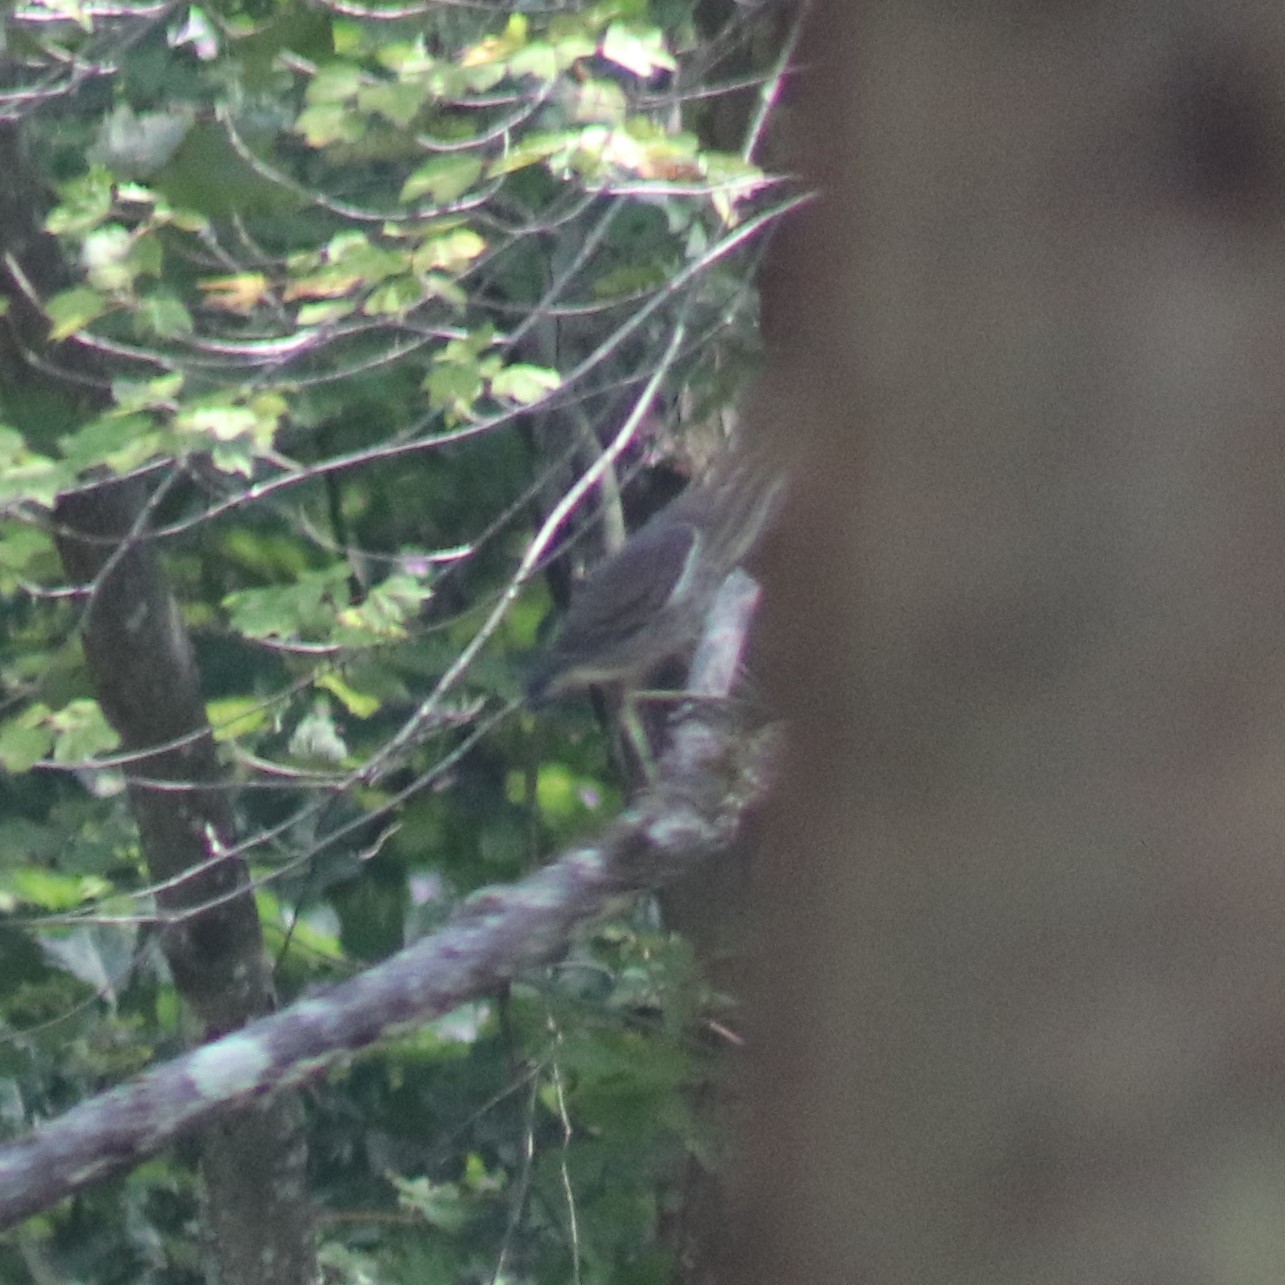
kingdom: Animalia
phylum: Chordata
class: Aves
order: Pelecaniformes
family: Ardeidae
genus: Butorides
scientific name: Butorides virescens
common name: Green heron
